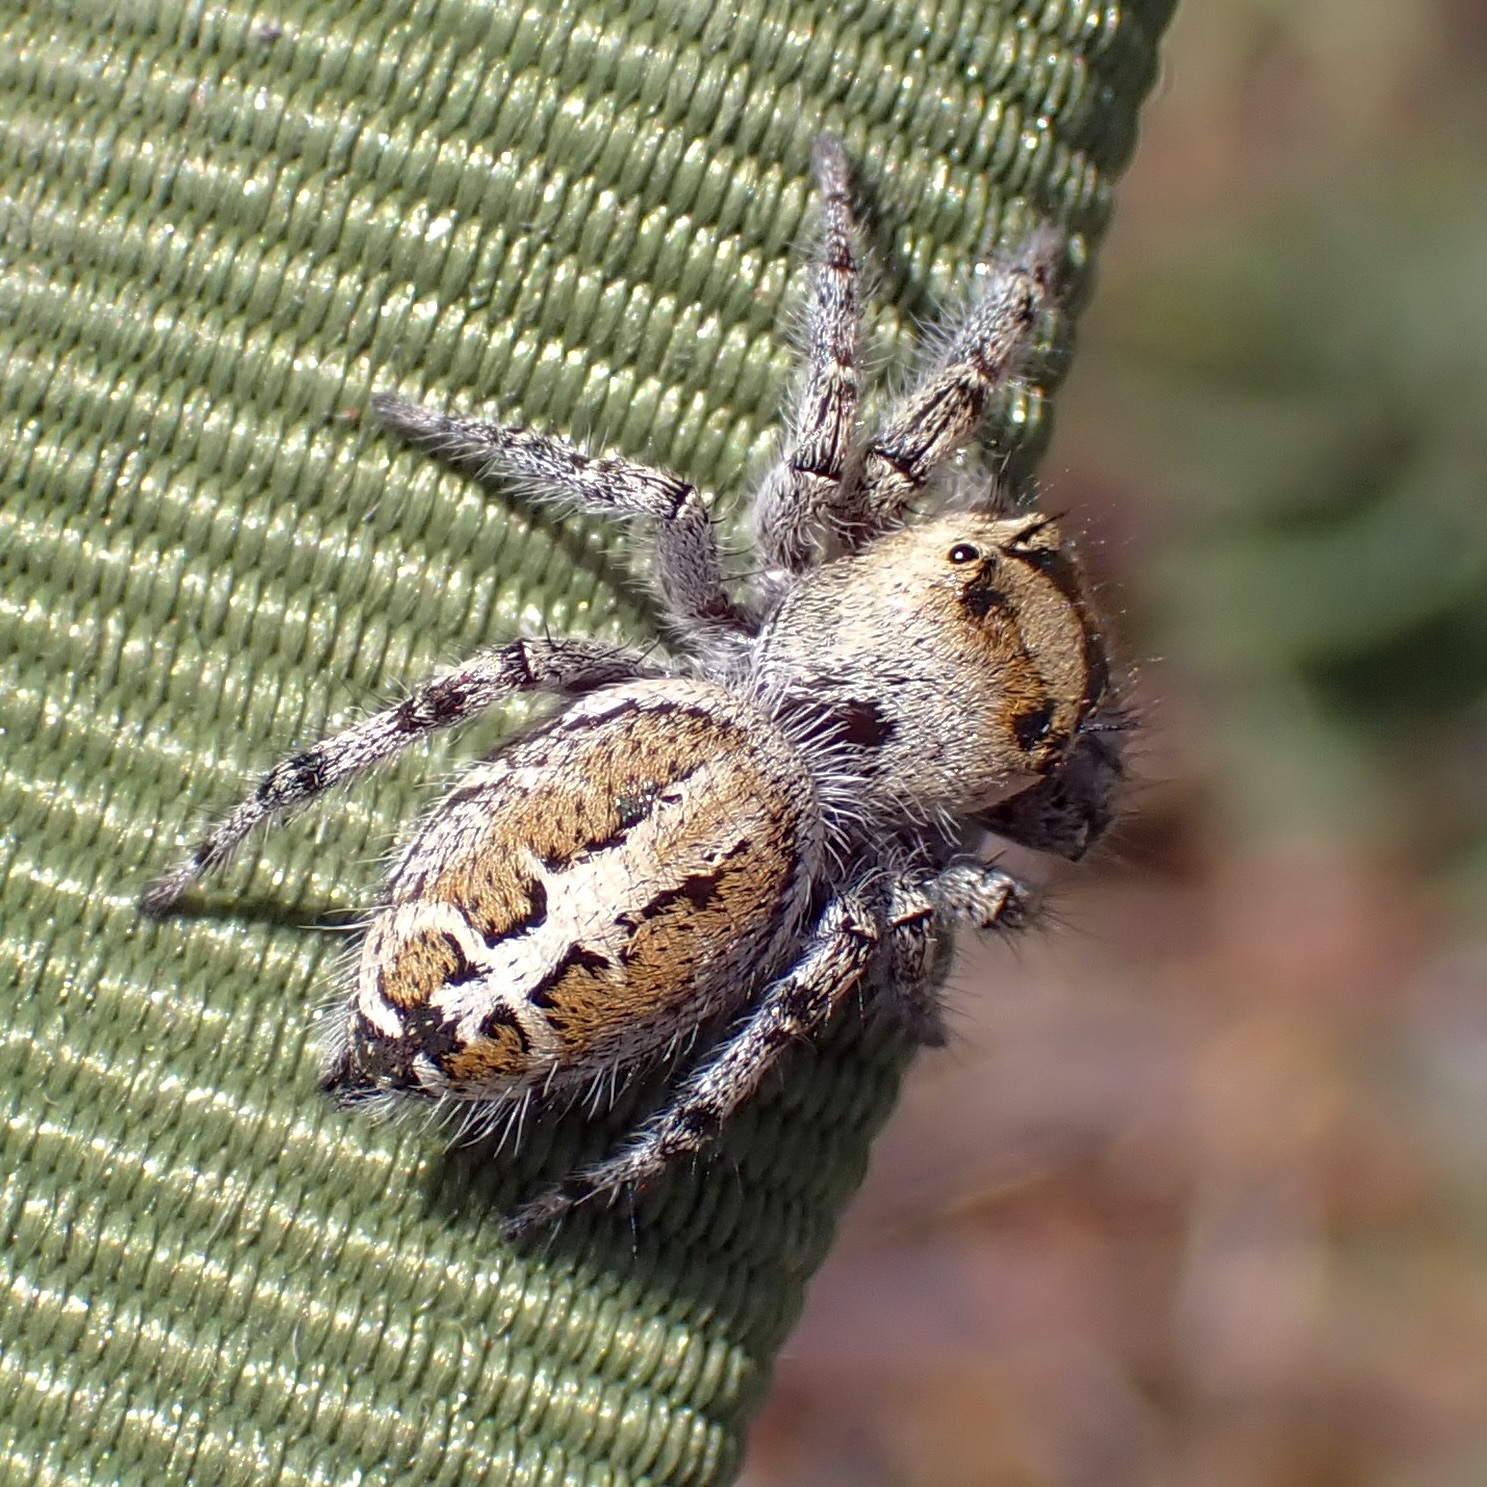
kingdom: Animalia
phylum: Arthropoda
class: Arachnida
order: Araneae
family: Salticidae
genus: Phidippus
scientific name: Phidippus phoenix
